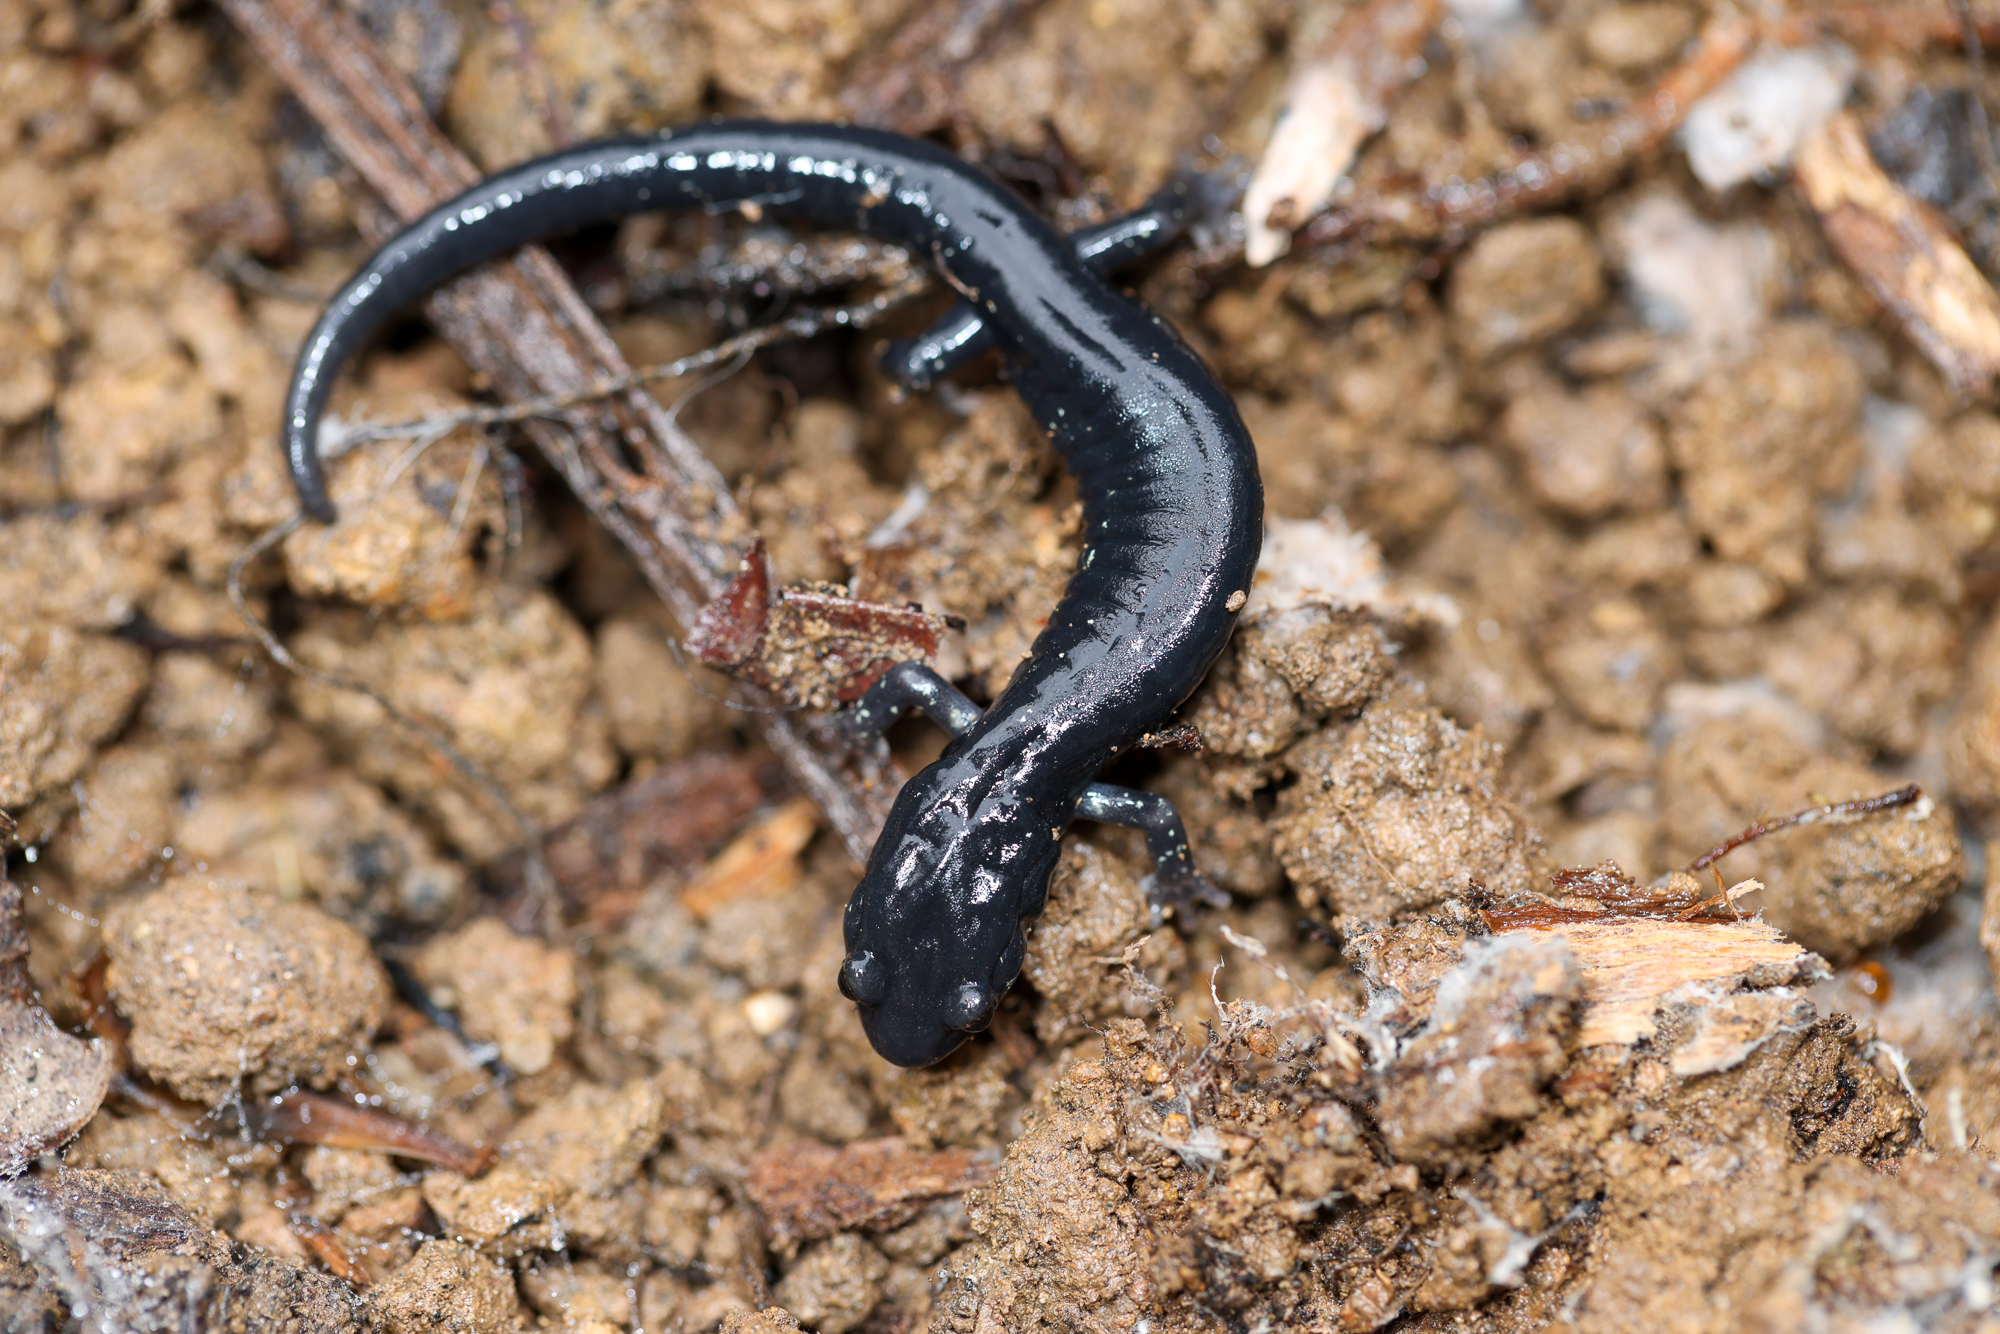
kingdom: Animalia
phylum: Chordata
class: Amphibia
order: Caudata
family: Plethodontidae
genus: Aneides
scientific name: Aneides flavipunctatus
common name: Black salamander
